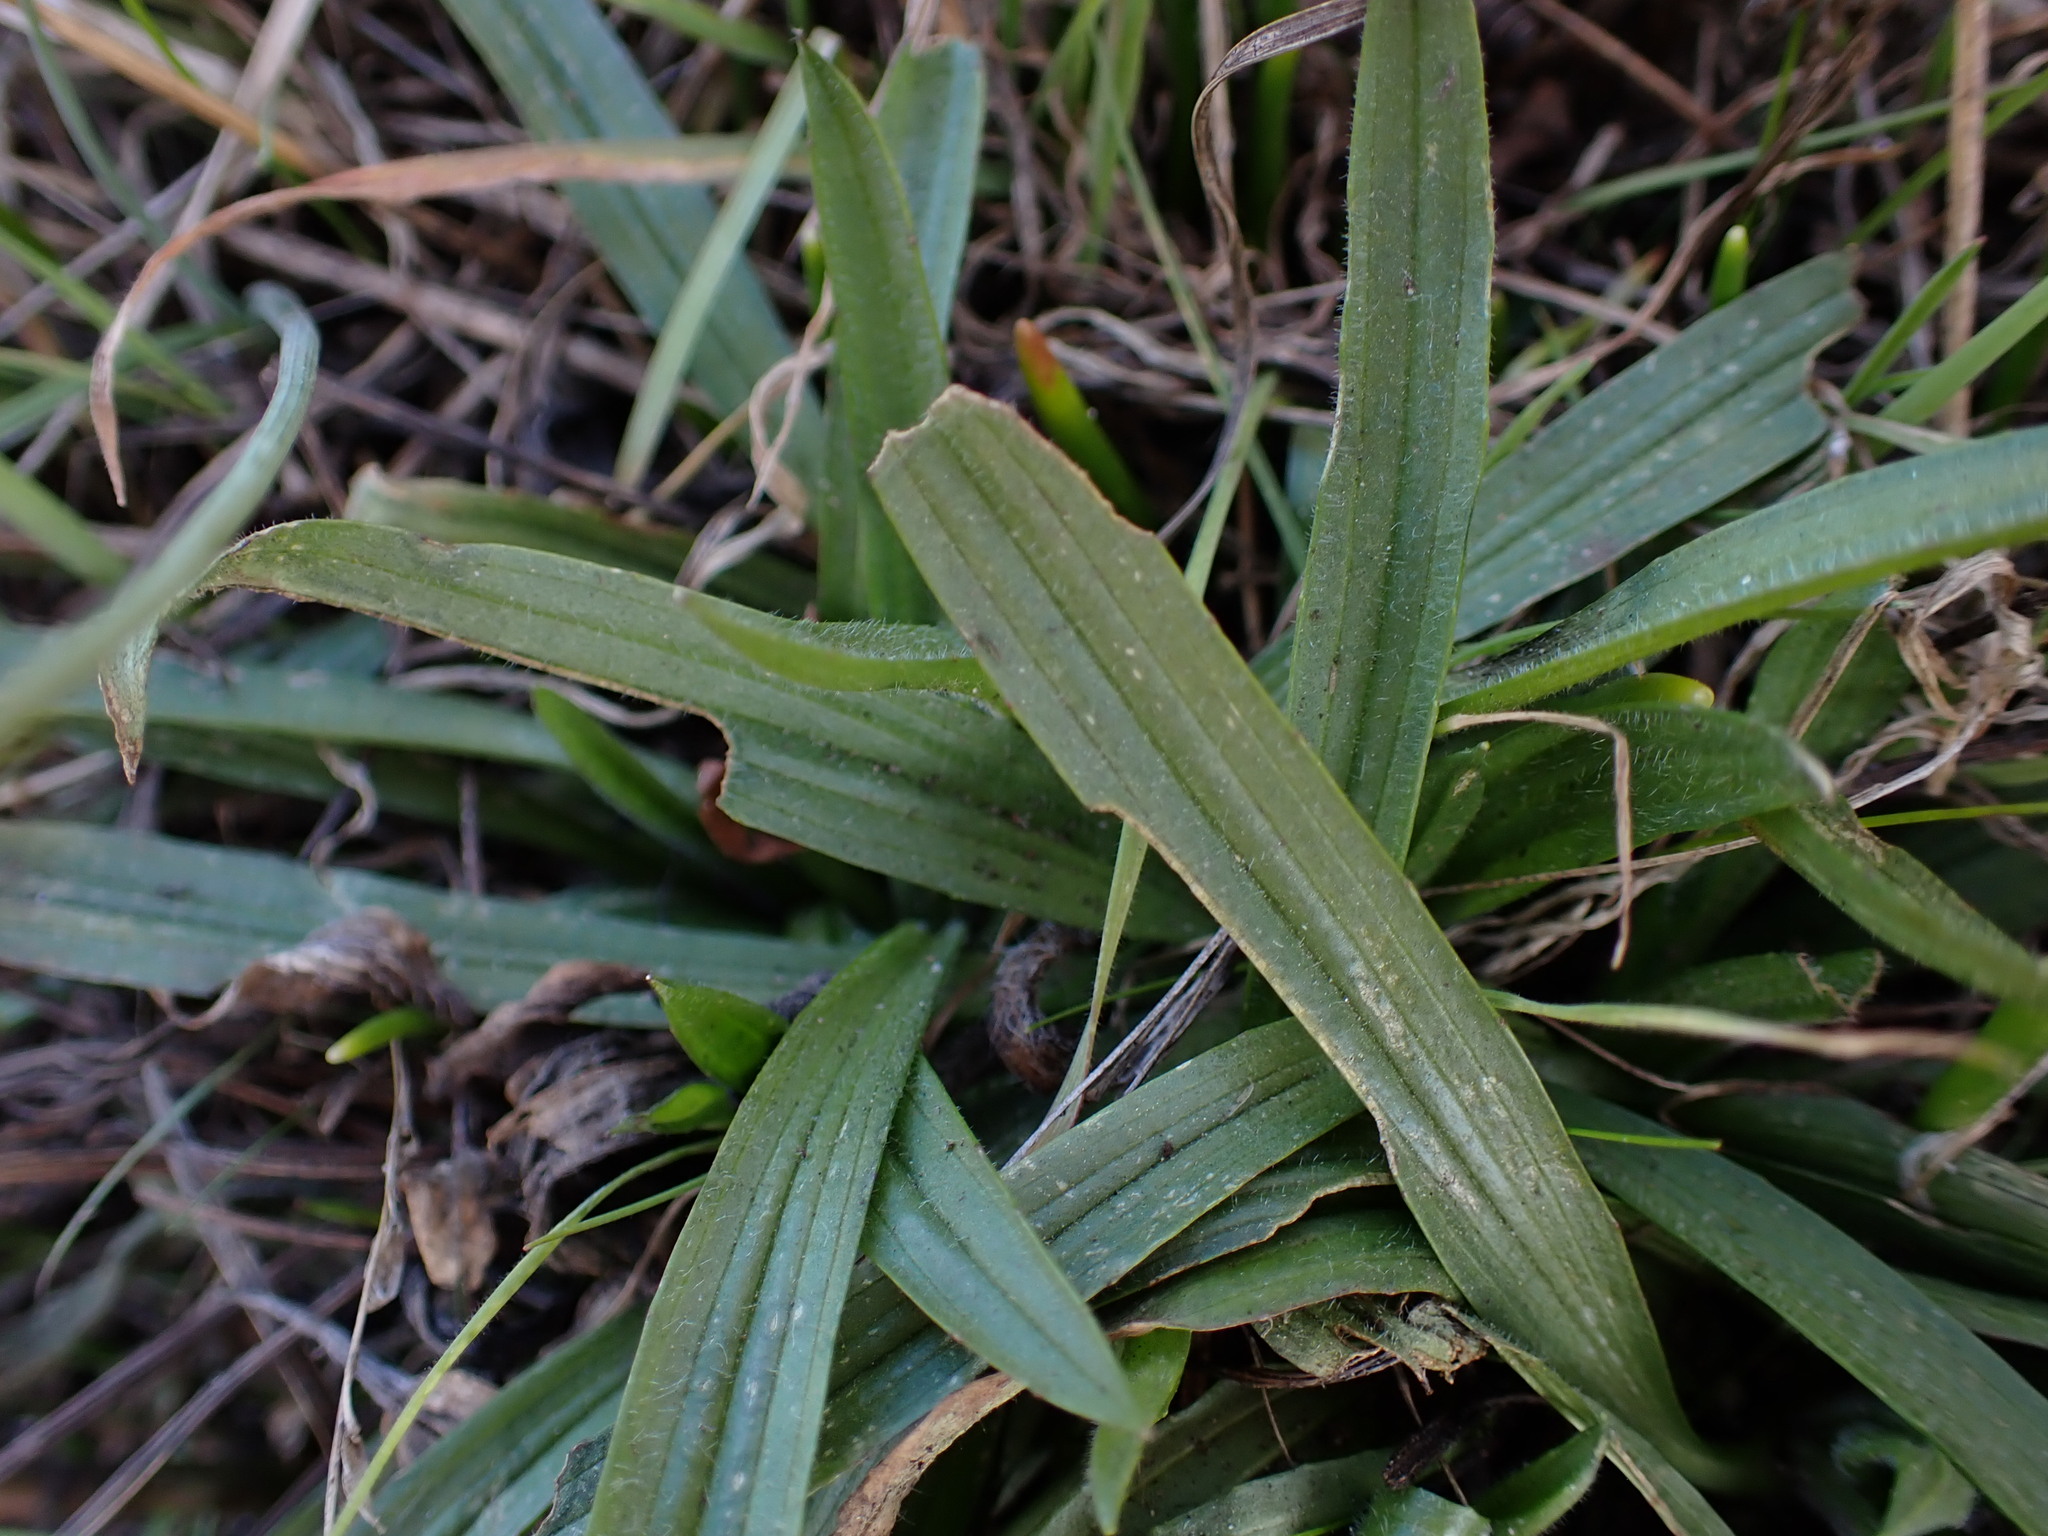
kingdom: Plantae
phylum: Tracheophyta
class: Magnoliopsida
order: Lamiales
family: Plantaginaceae
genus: Plantago
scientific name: Plantago lanceolata
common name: Ribwort plantain
